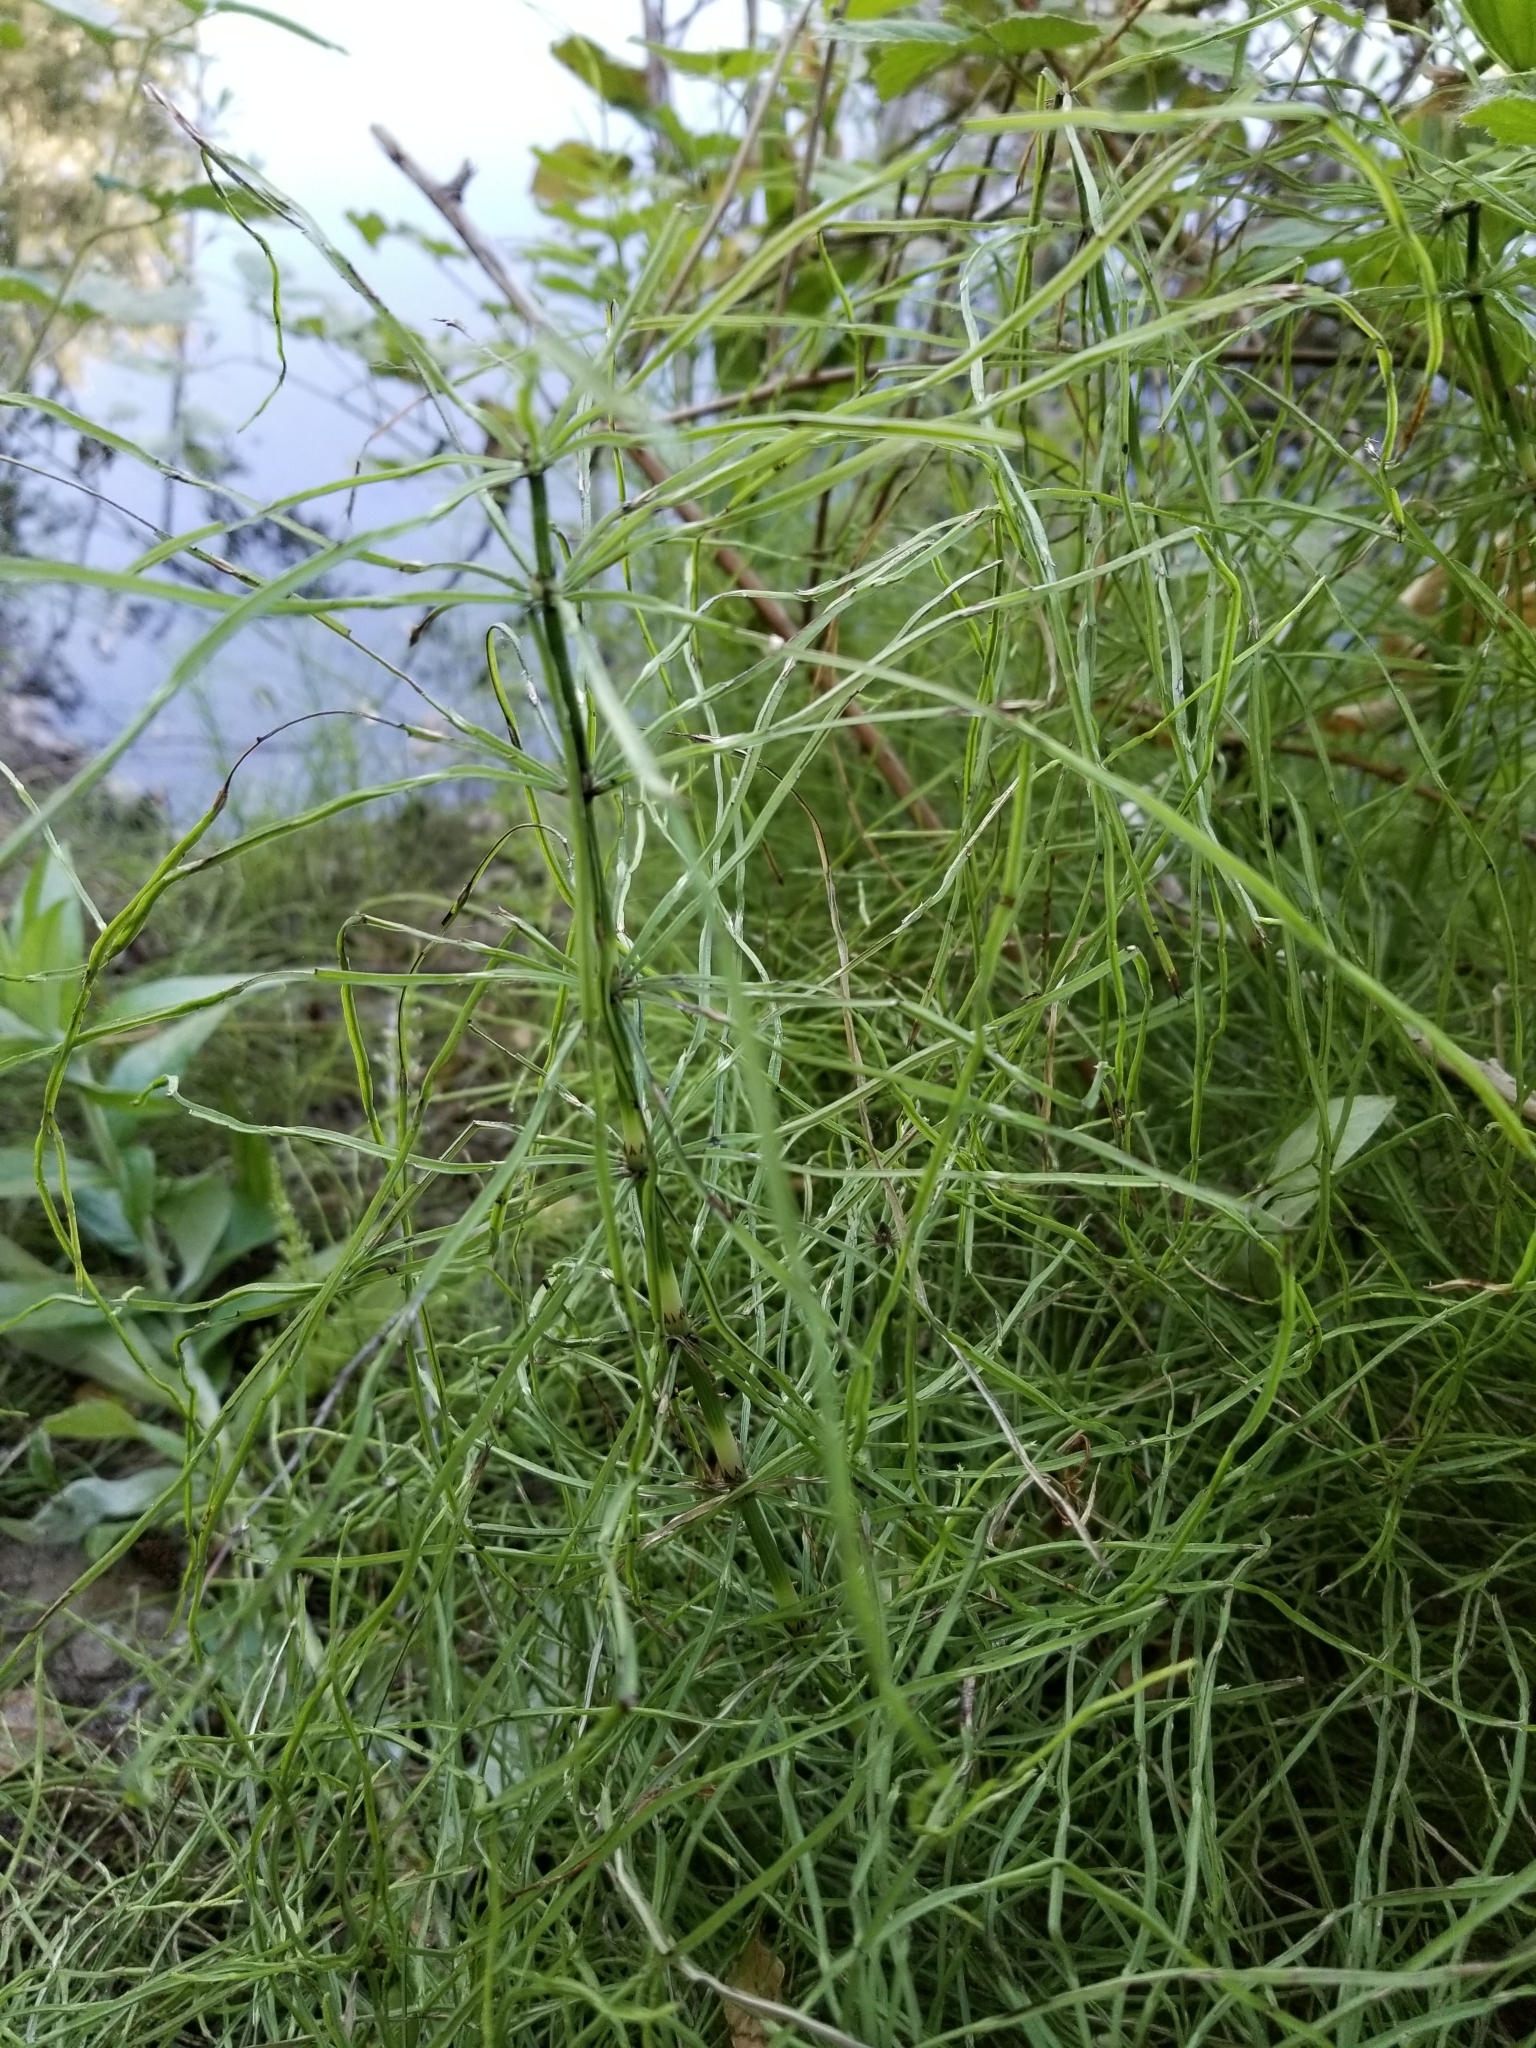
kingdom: Plantae
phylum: Tracheophyta
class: Polypodiopsida
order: Equisetales
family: Equisetaceae
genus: Equisetum
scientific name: Equisetum arvense
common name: Field horsetail
